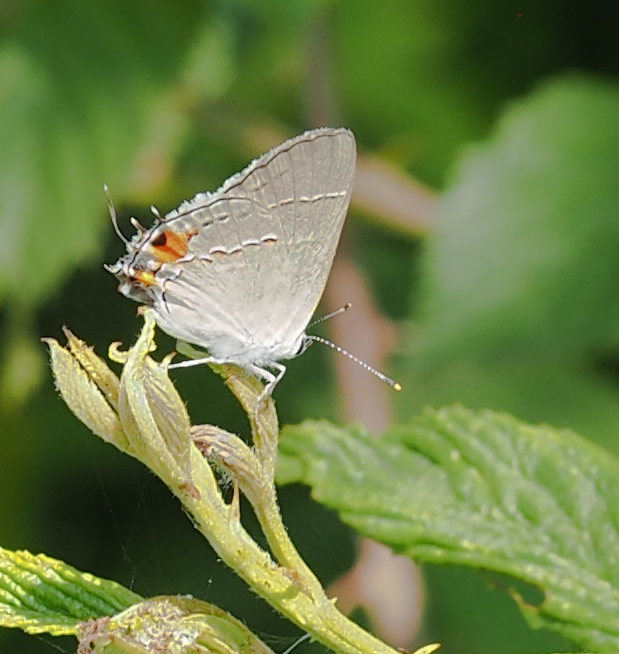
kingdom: Animalia
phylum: Arthropoda
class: Insecta
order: Lepidoptera
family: Lycaenidae
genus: Strymon
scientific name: Strymon melinus
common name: Gray hairstreak
